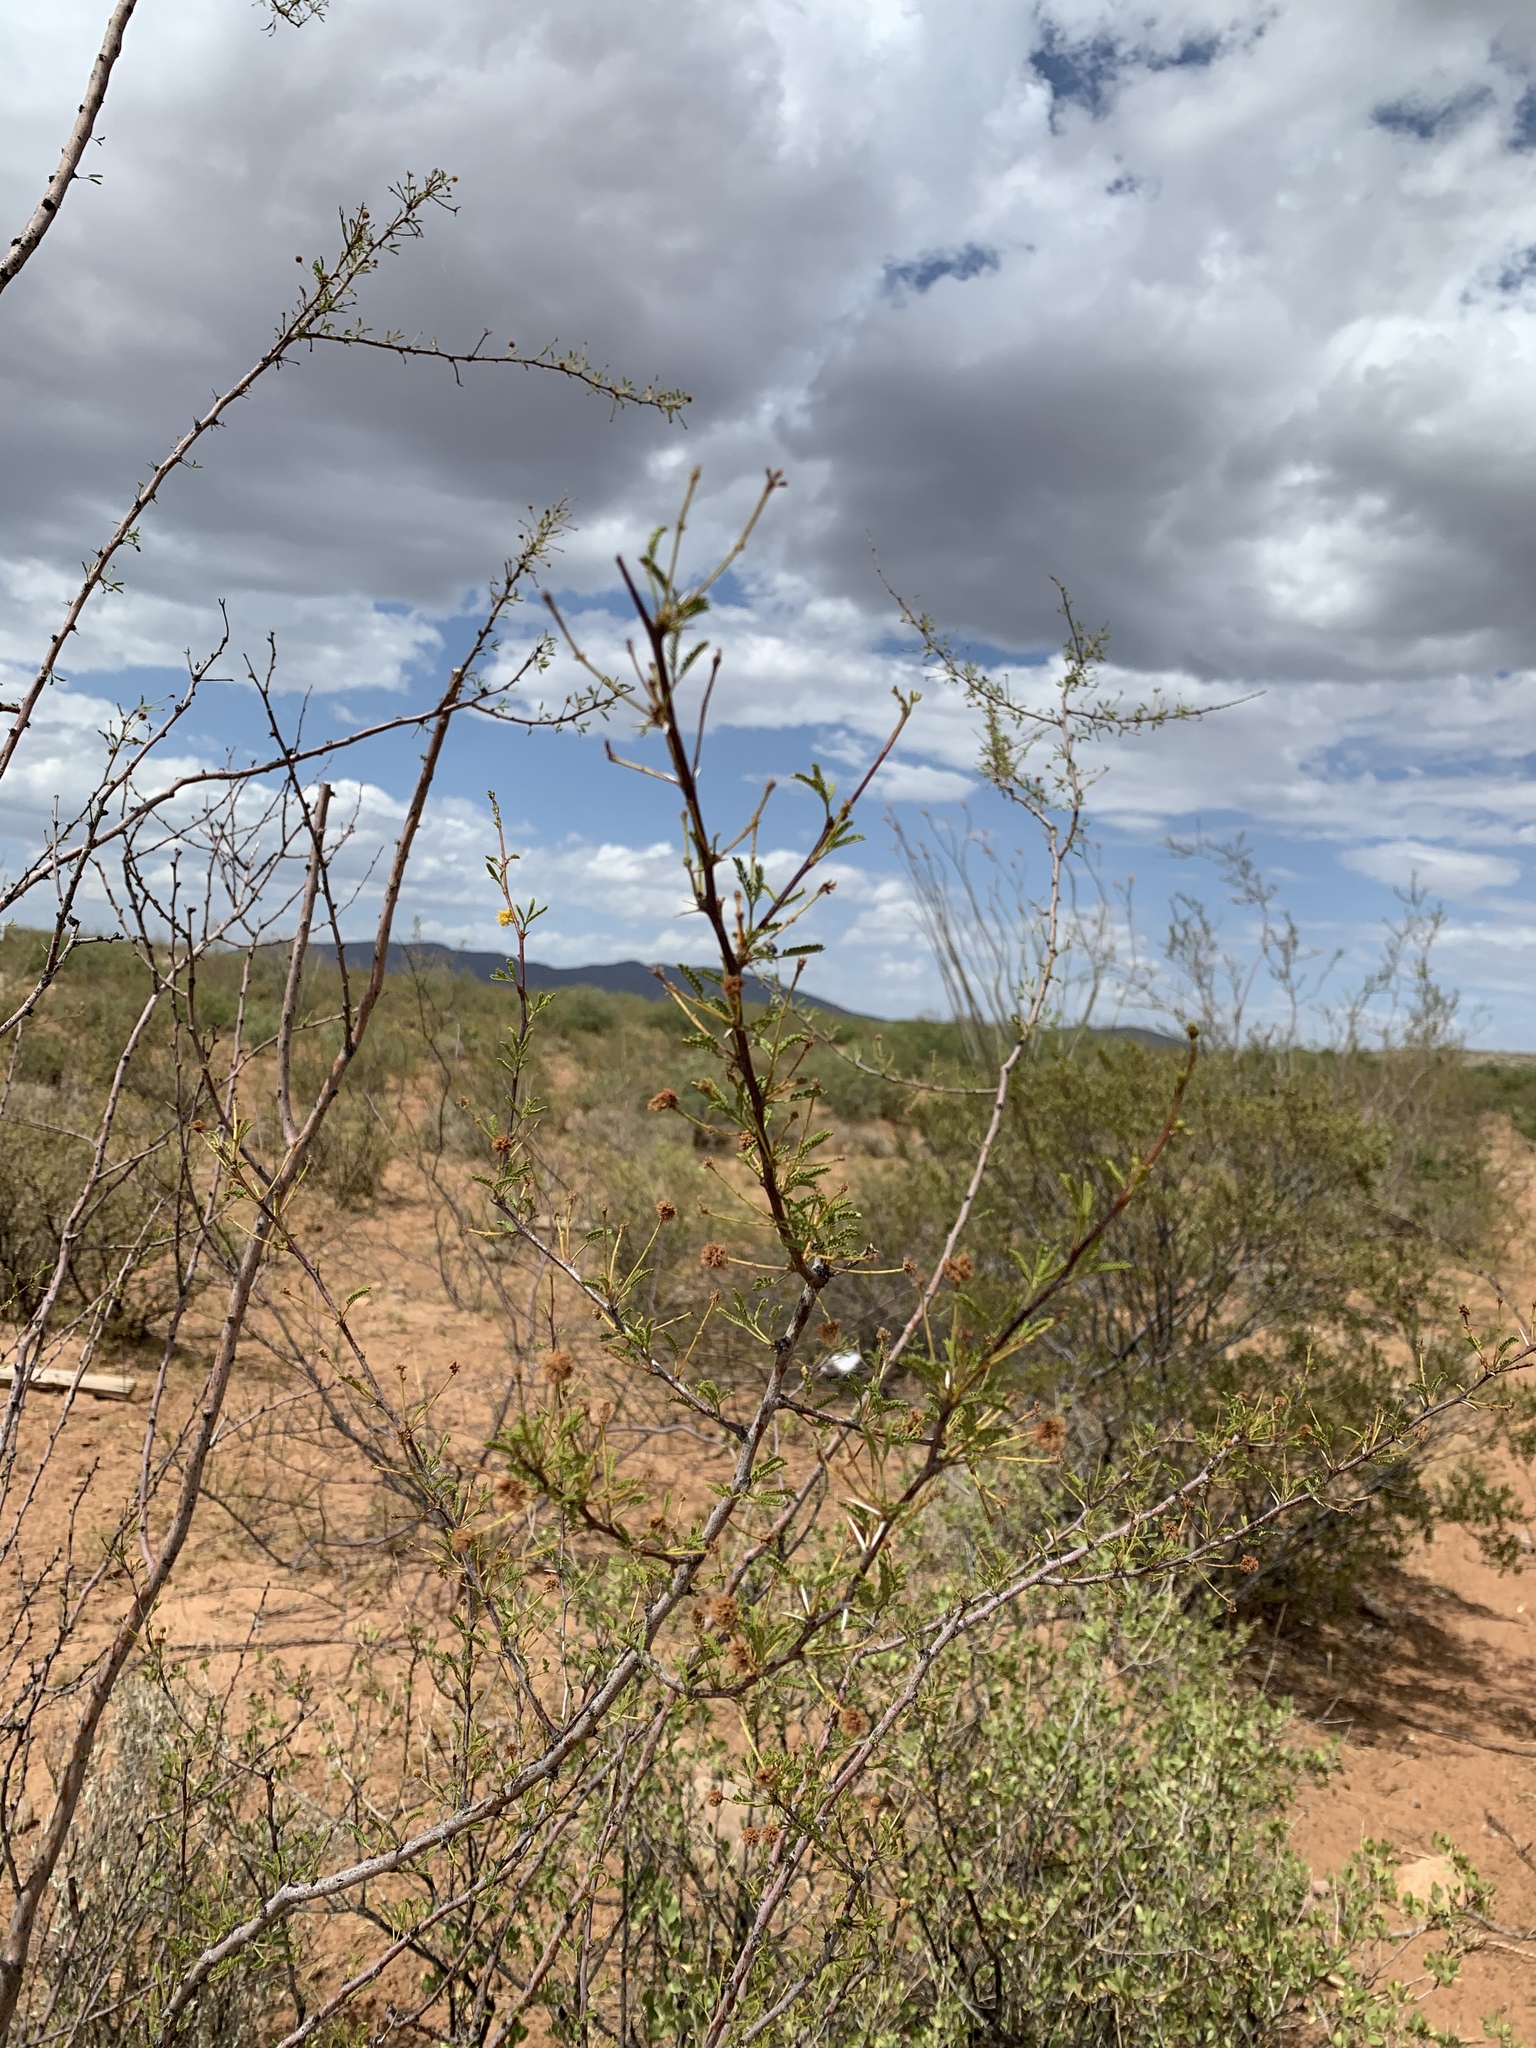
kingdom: Plantae
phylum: Tracheophyta
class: Magnoliopsida
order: Fabales
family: Fabaceae
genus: Vachellia
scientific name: Vachellia constricta
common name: Mescat acacia
